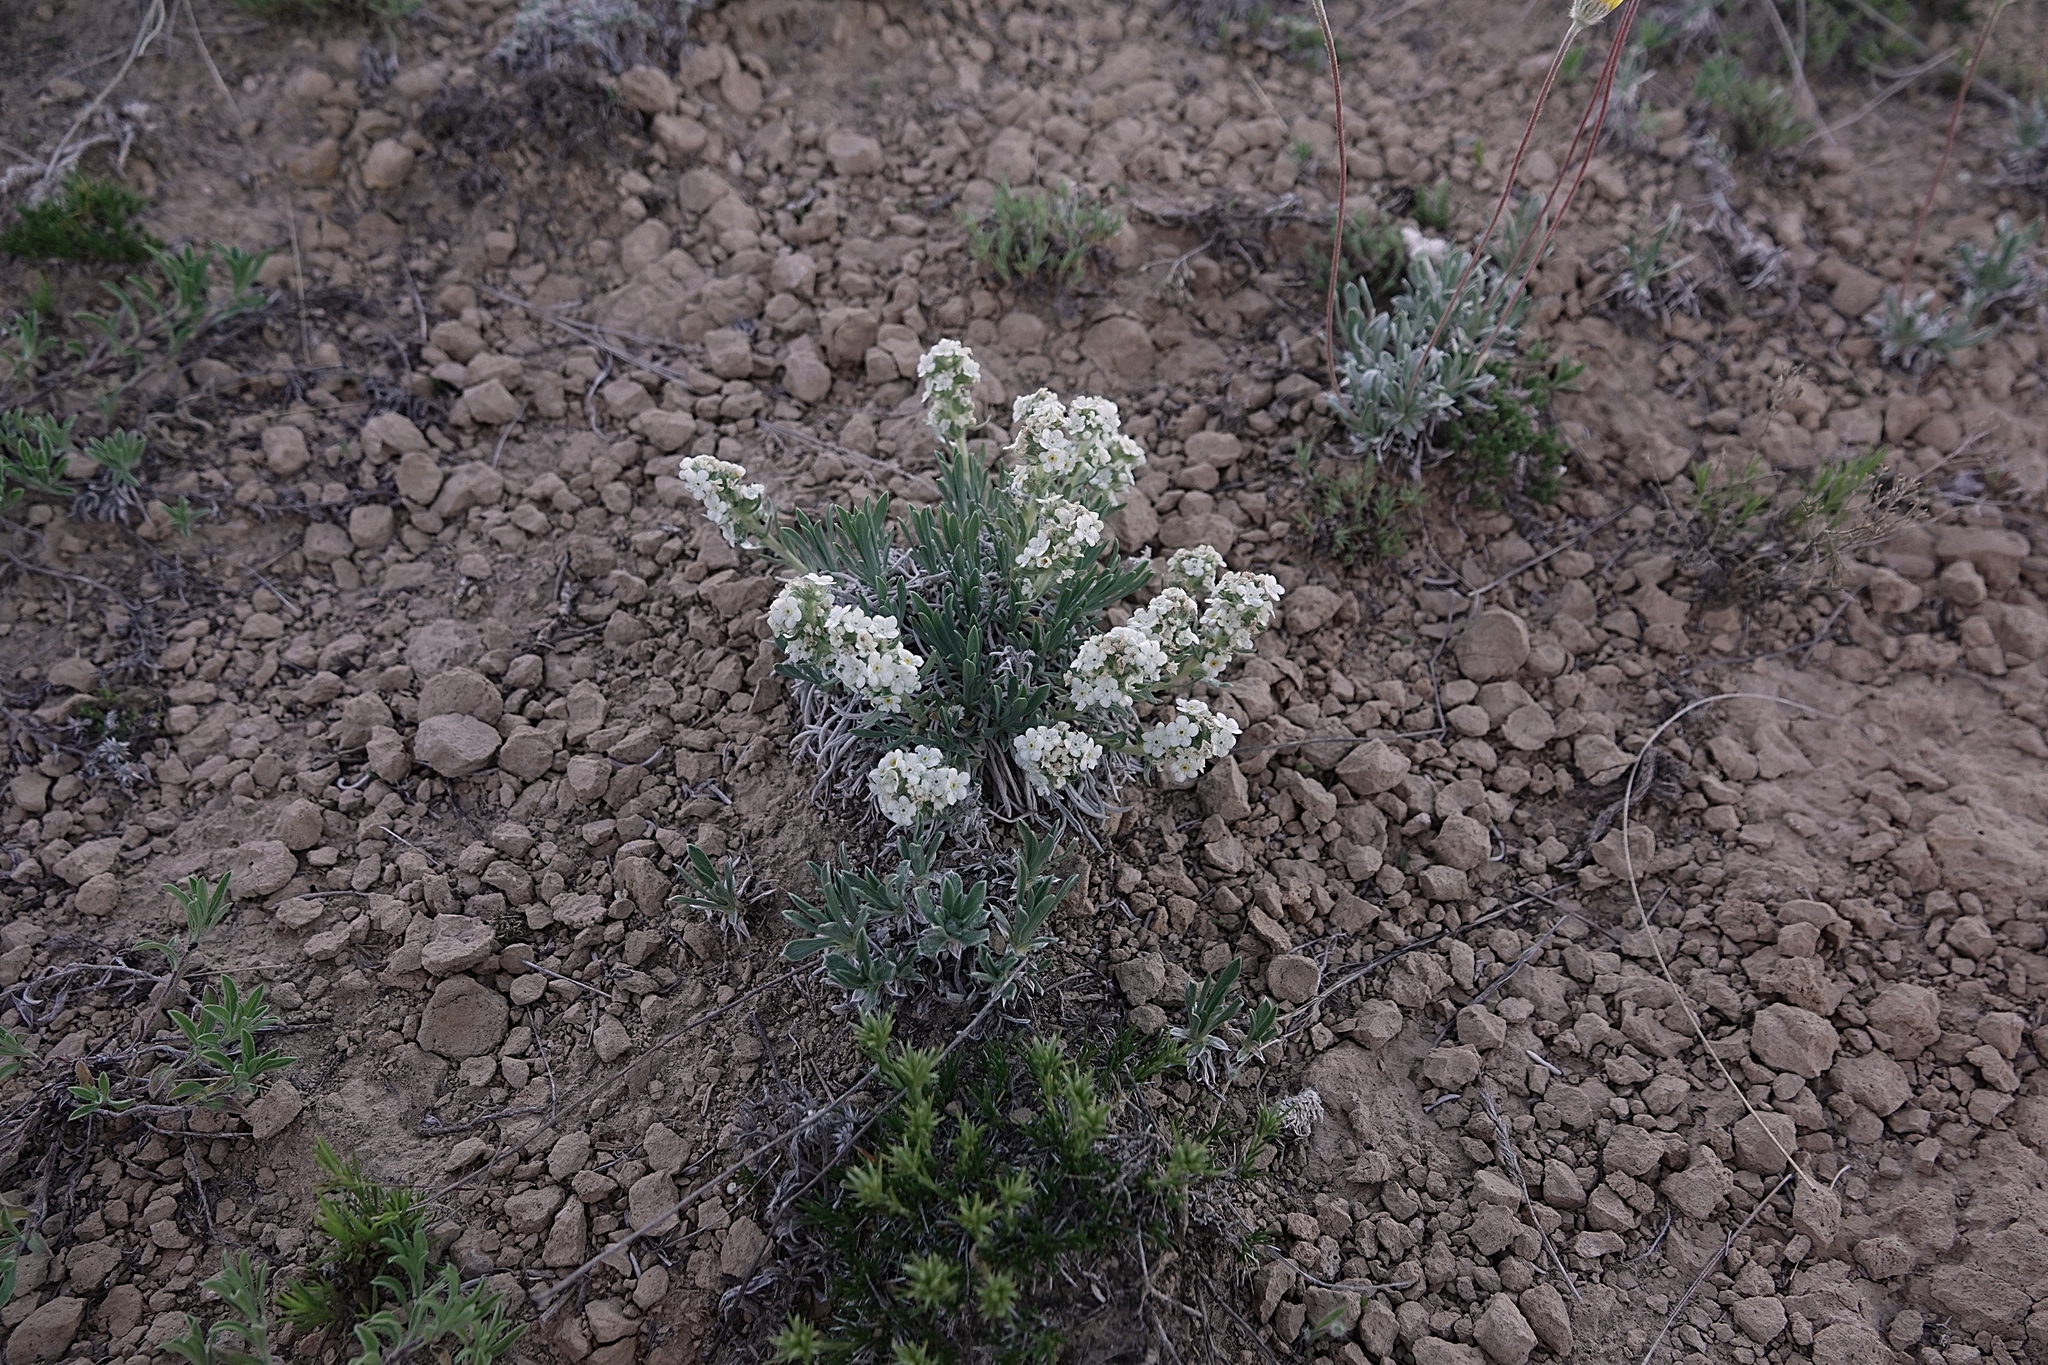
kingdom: Plantae
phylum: Tracheophyta
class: Magnoliopsida
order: Boraginales
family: Boraginaceae
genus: Oreocarya
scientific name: Oreocarya cana
